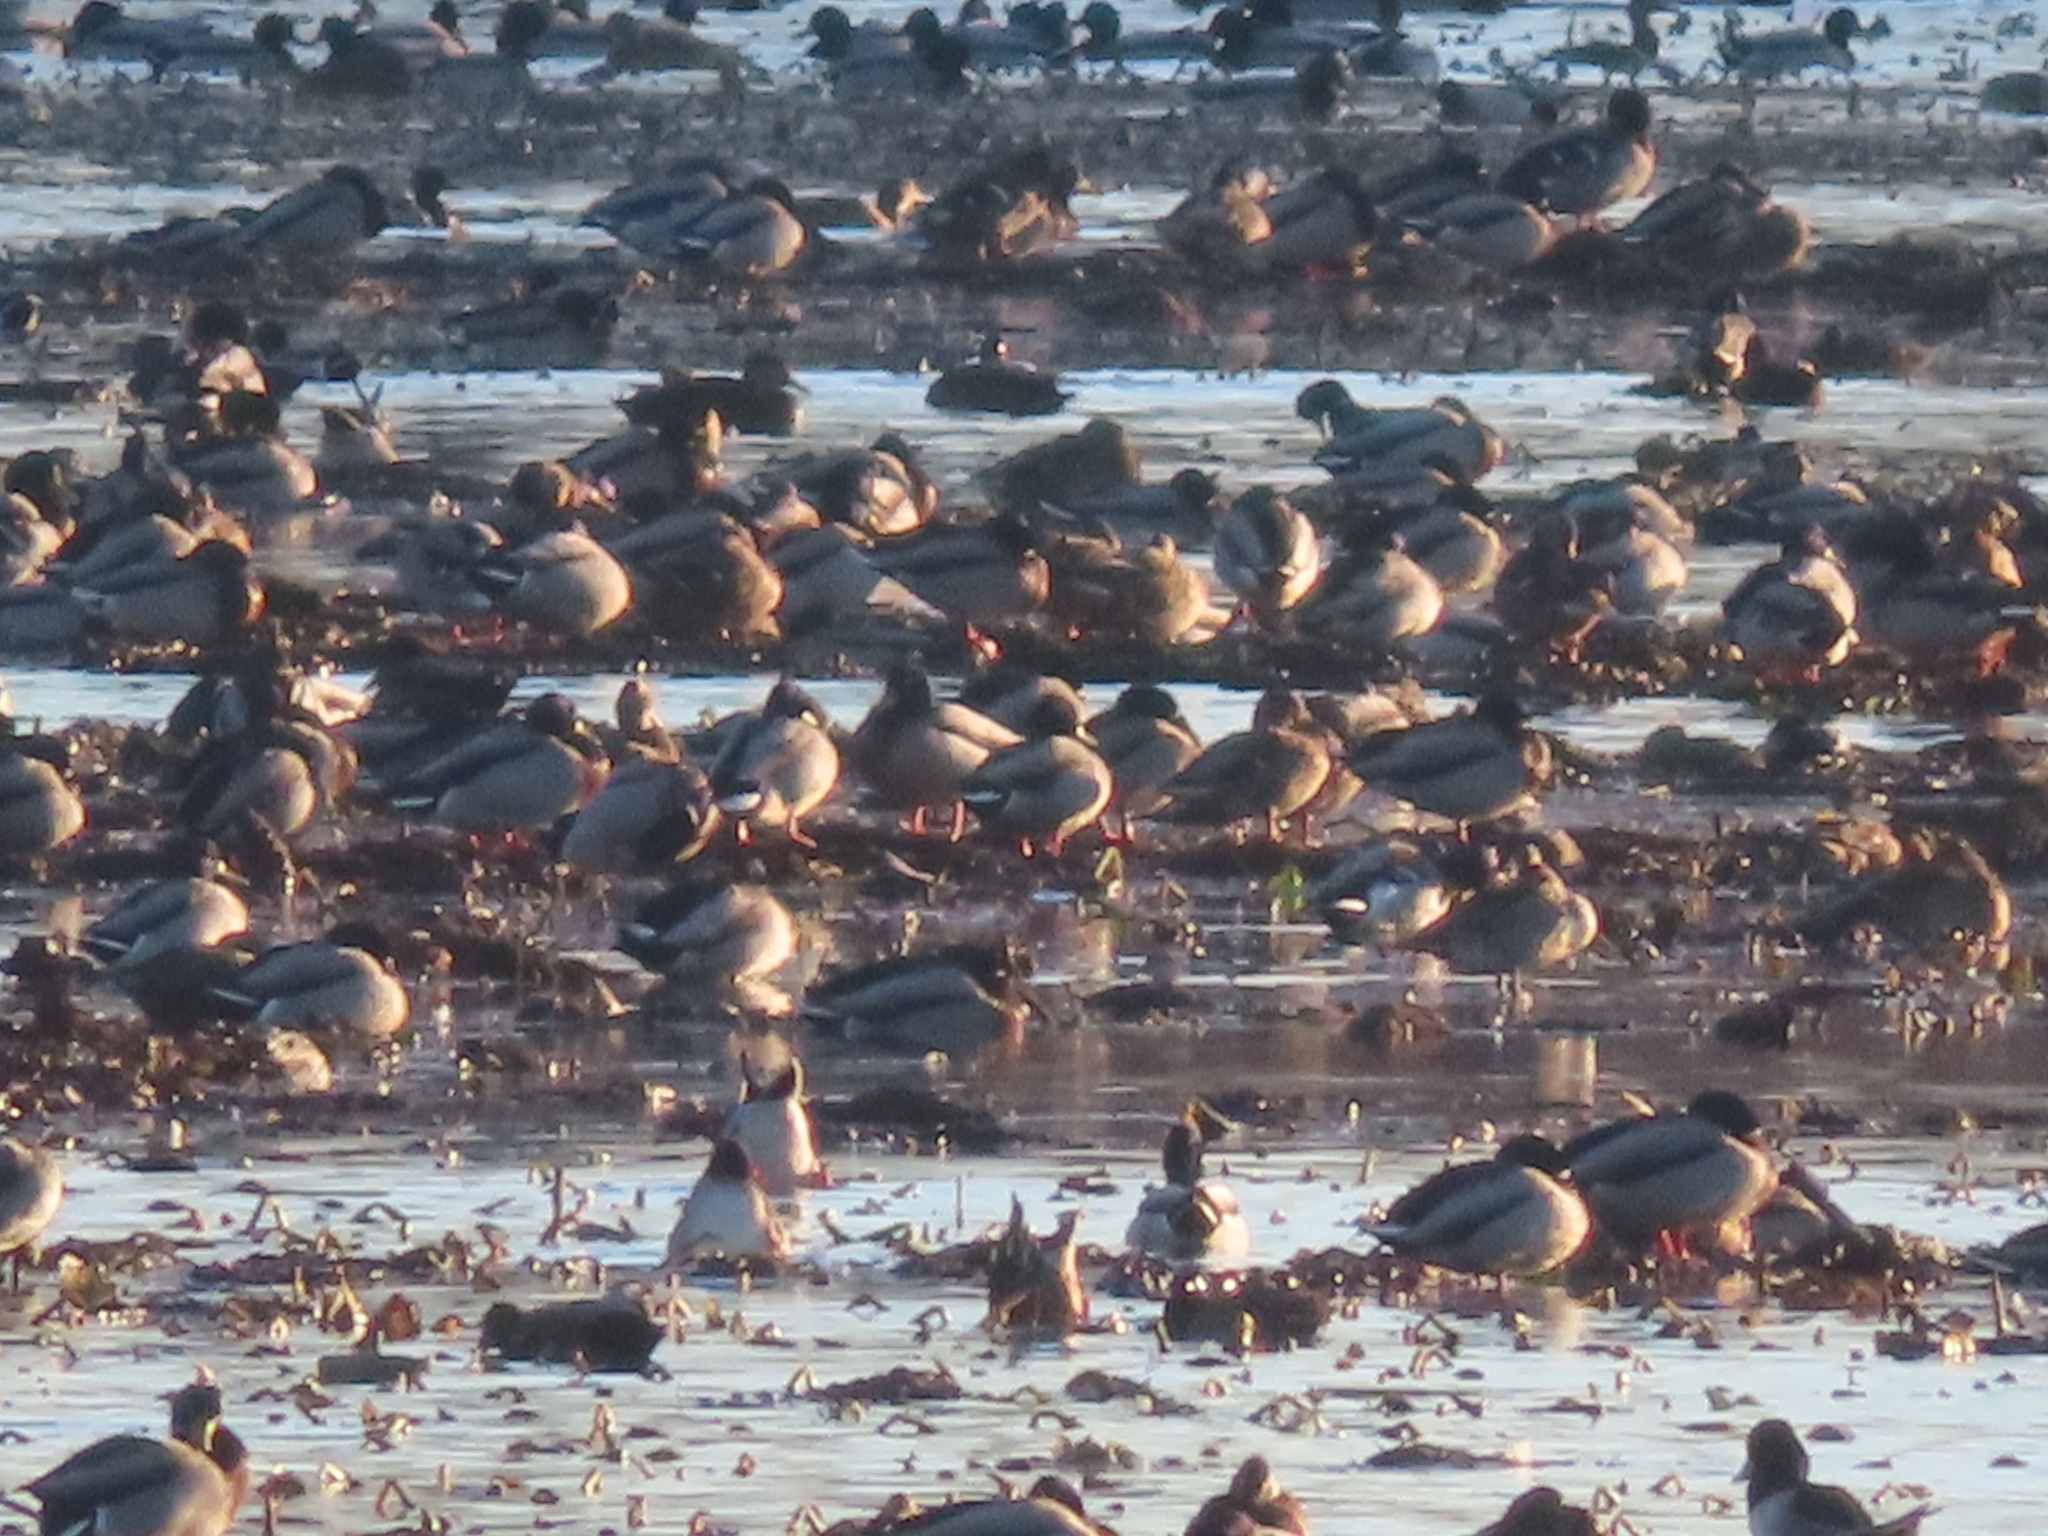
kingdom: Animalia
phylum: Chordata
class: Aves
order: Anseriformes
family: Anatidae
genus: Anas
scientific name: Anas platyrhynchos
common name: Mallard
